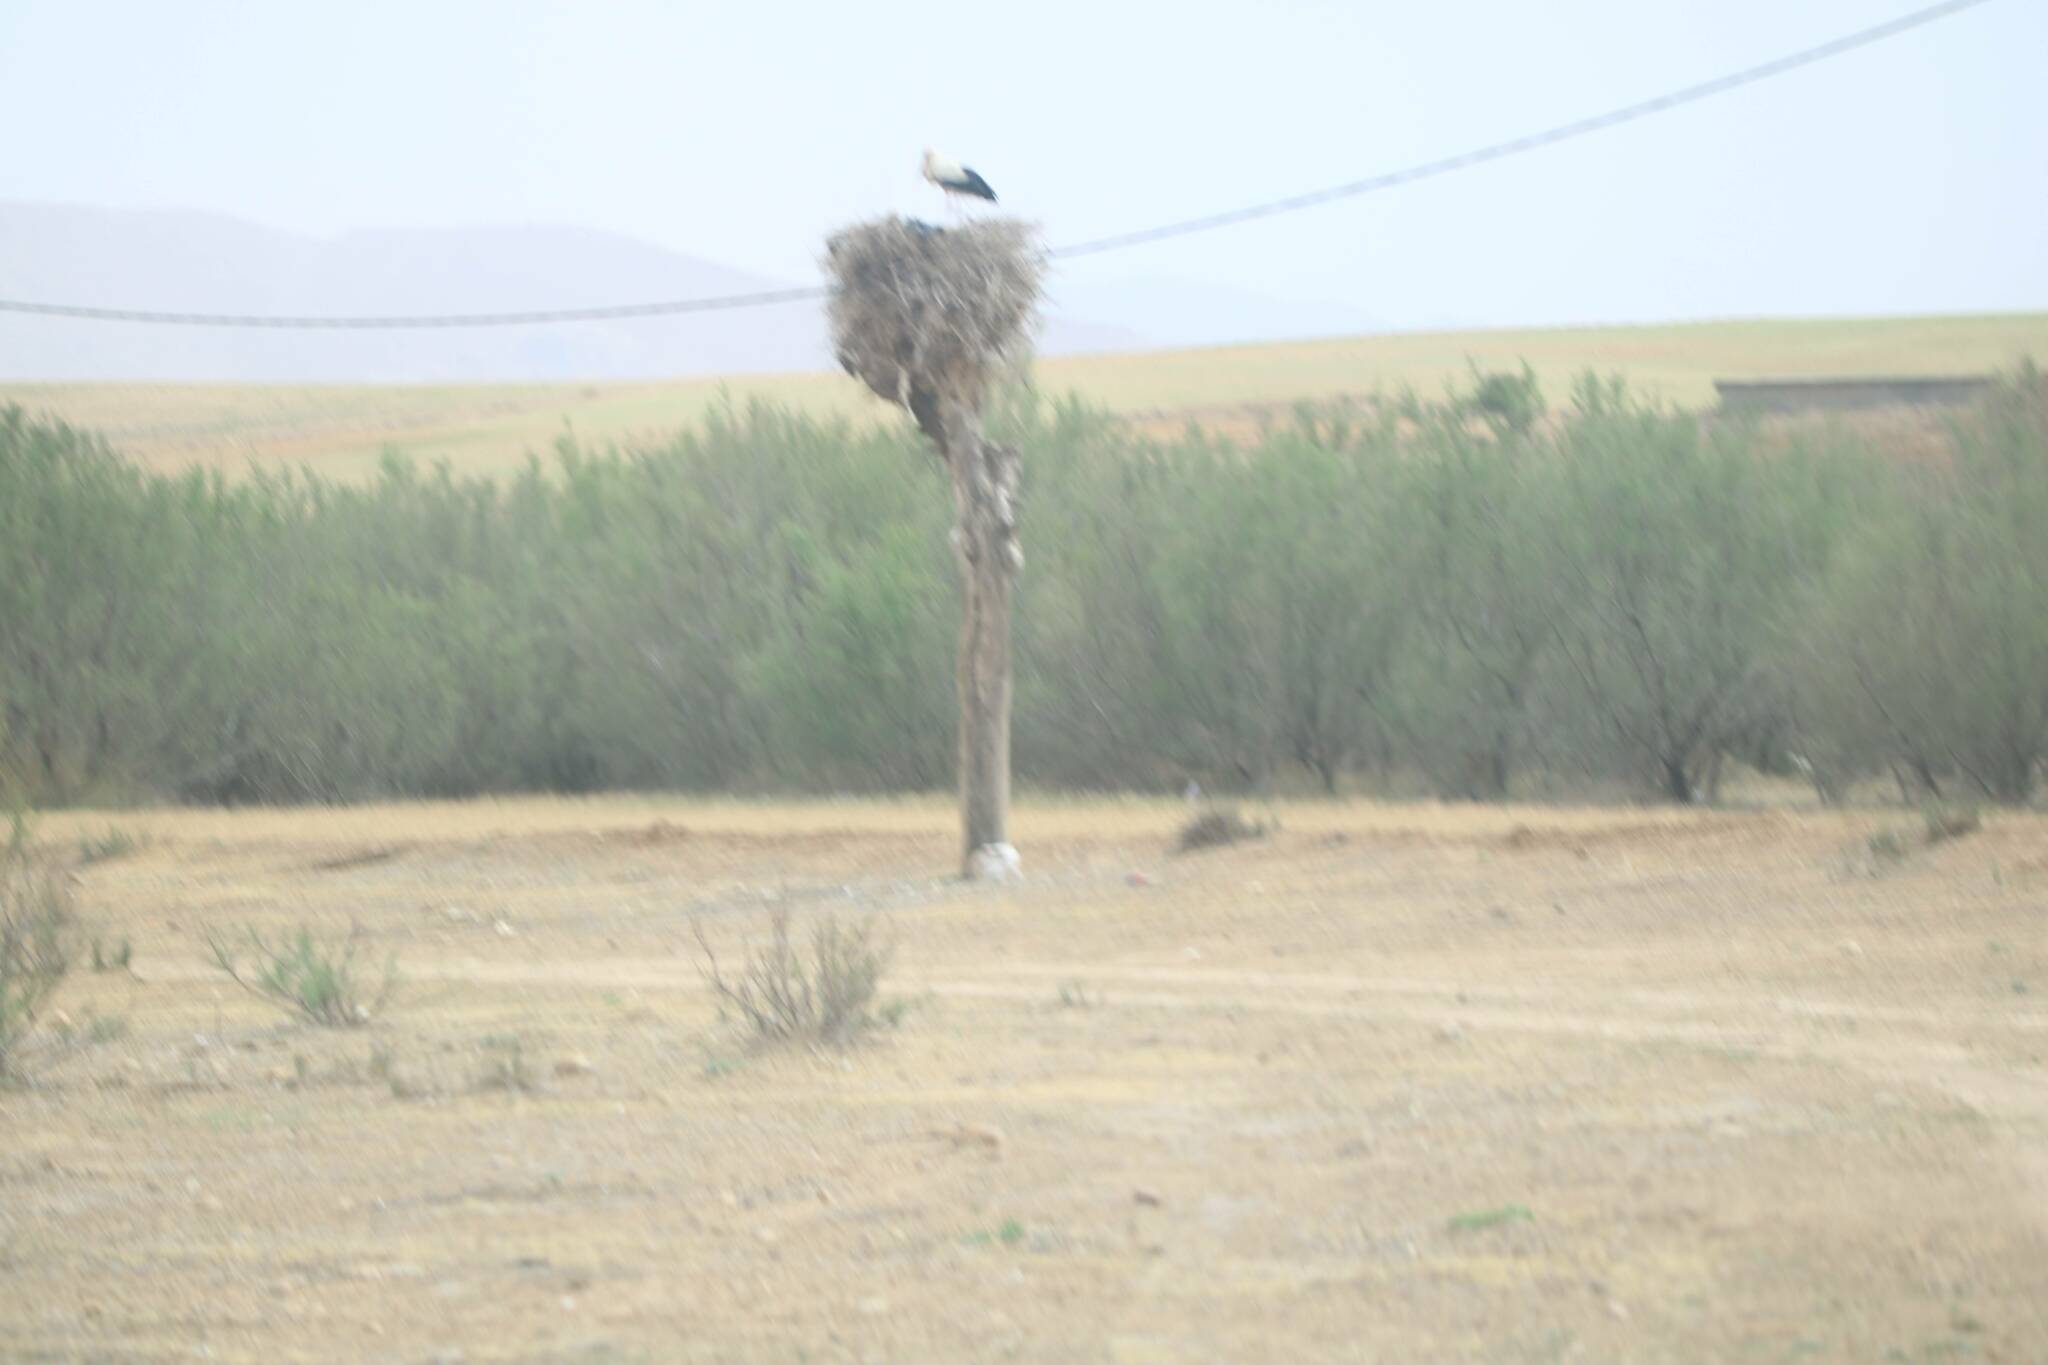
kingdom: Animalia
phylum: Chordata
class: Aves
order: Ciconiiformes
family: Ciconiidae
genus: Ciconia
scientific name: Ciconia ciconia
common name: White stork
